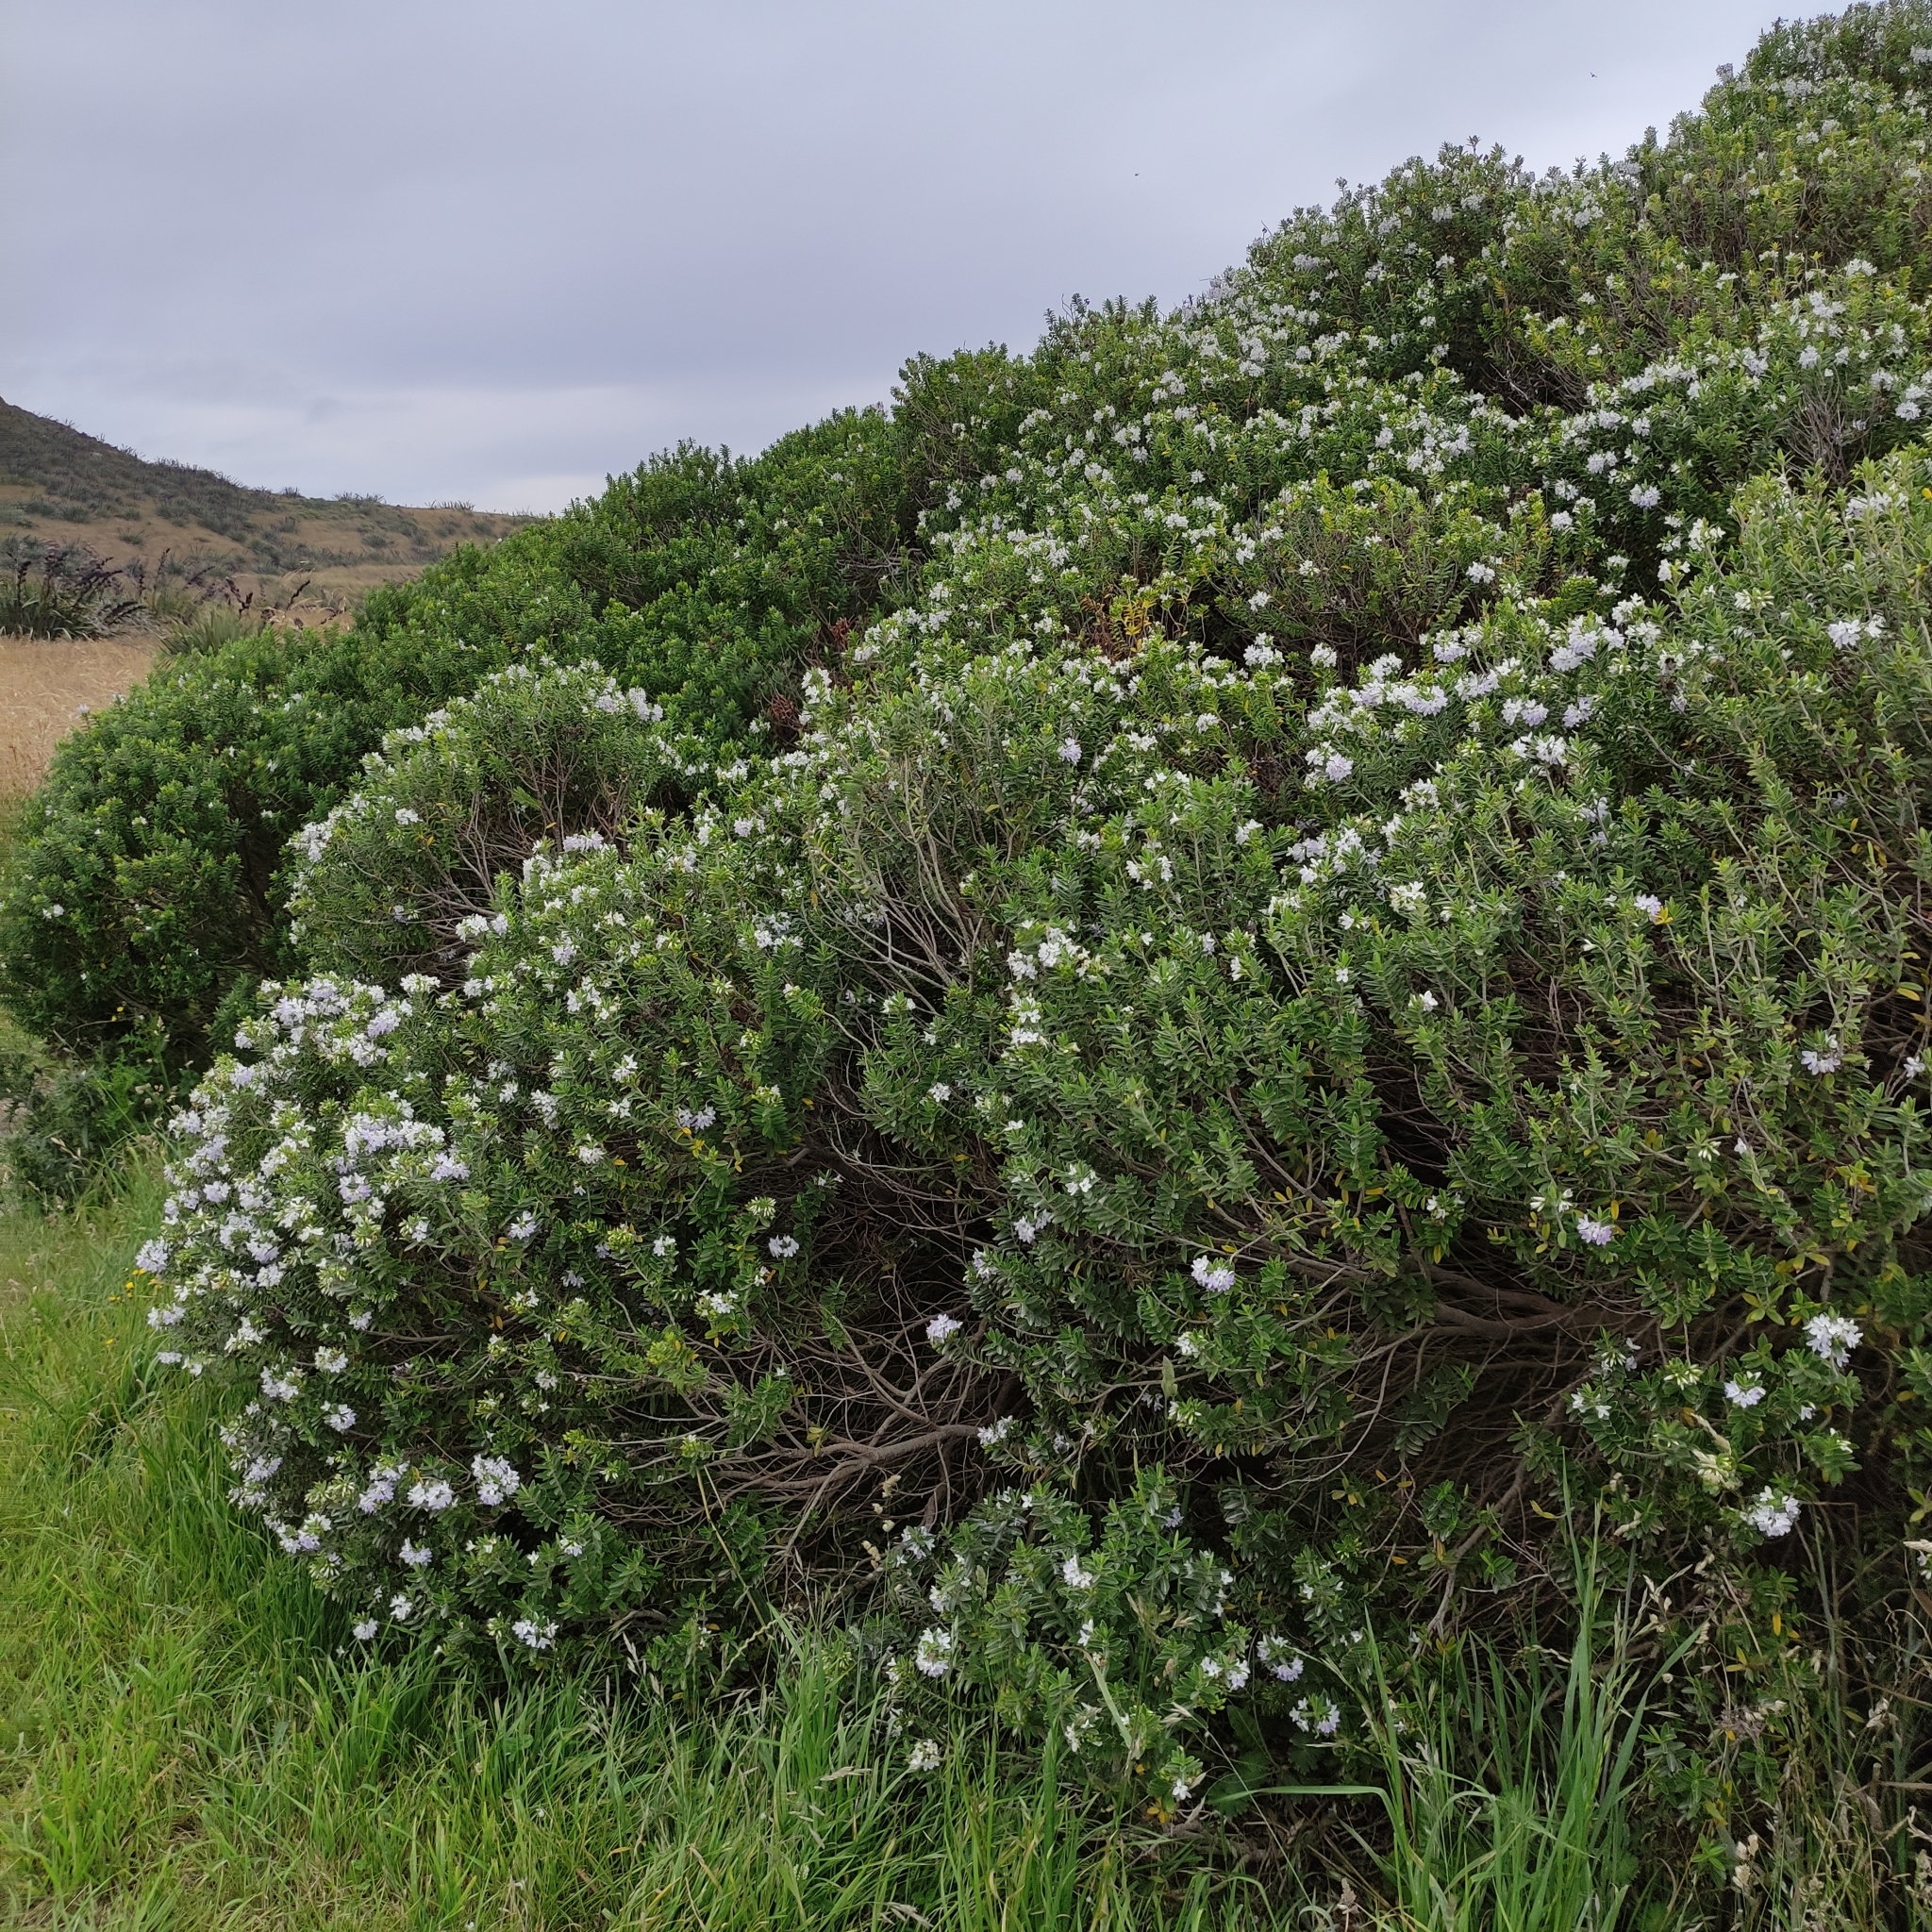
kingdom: Plantae
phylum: Tracheophyta
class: Magnoliopsida
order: Lamiales
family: Plantaginaceae
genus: Veronica
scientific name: Veronica elliptica
